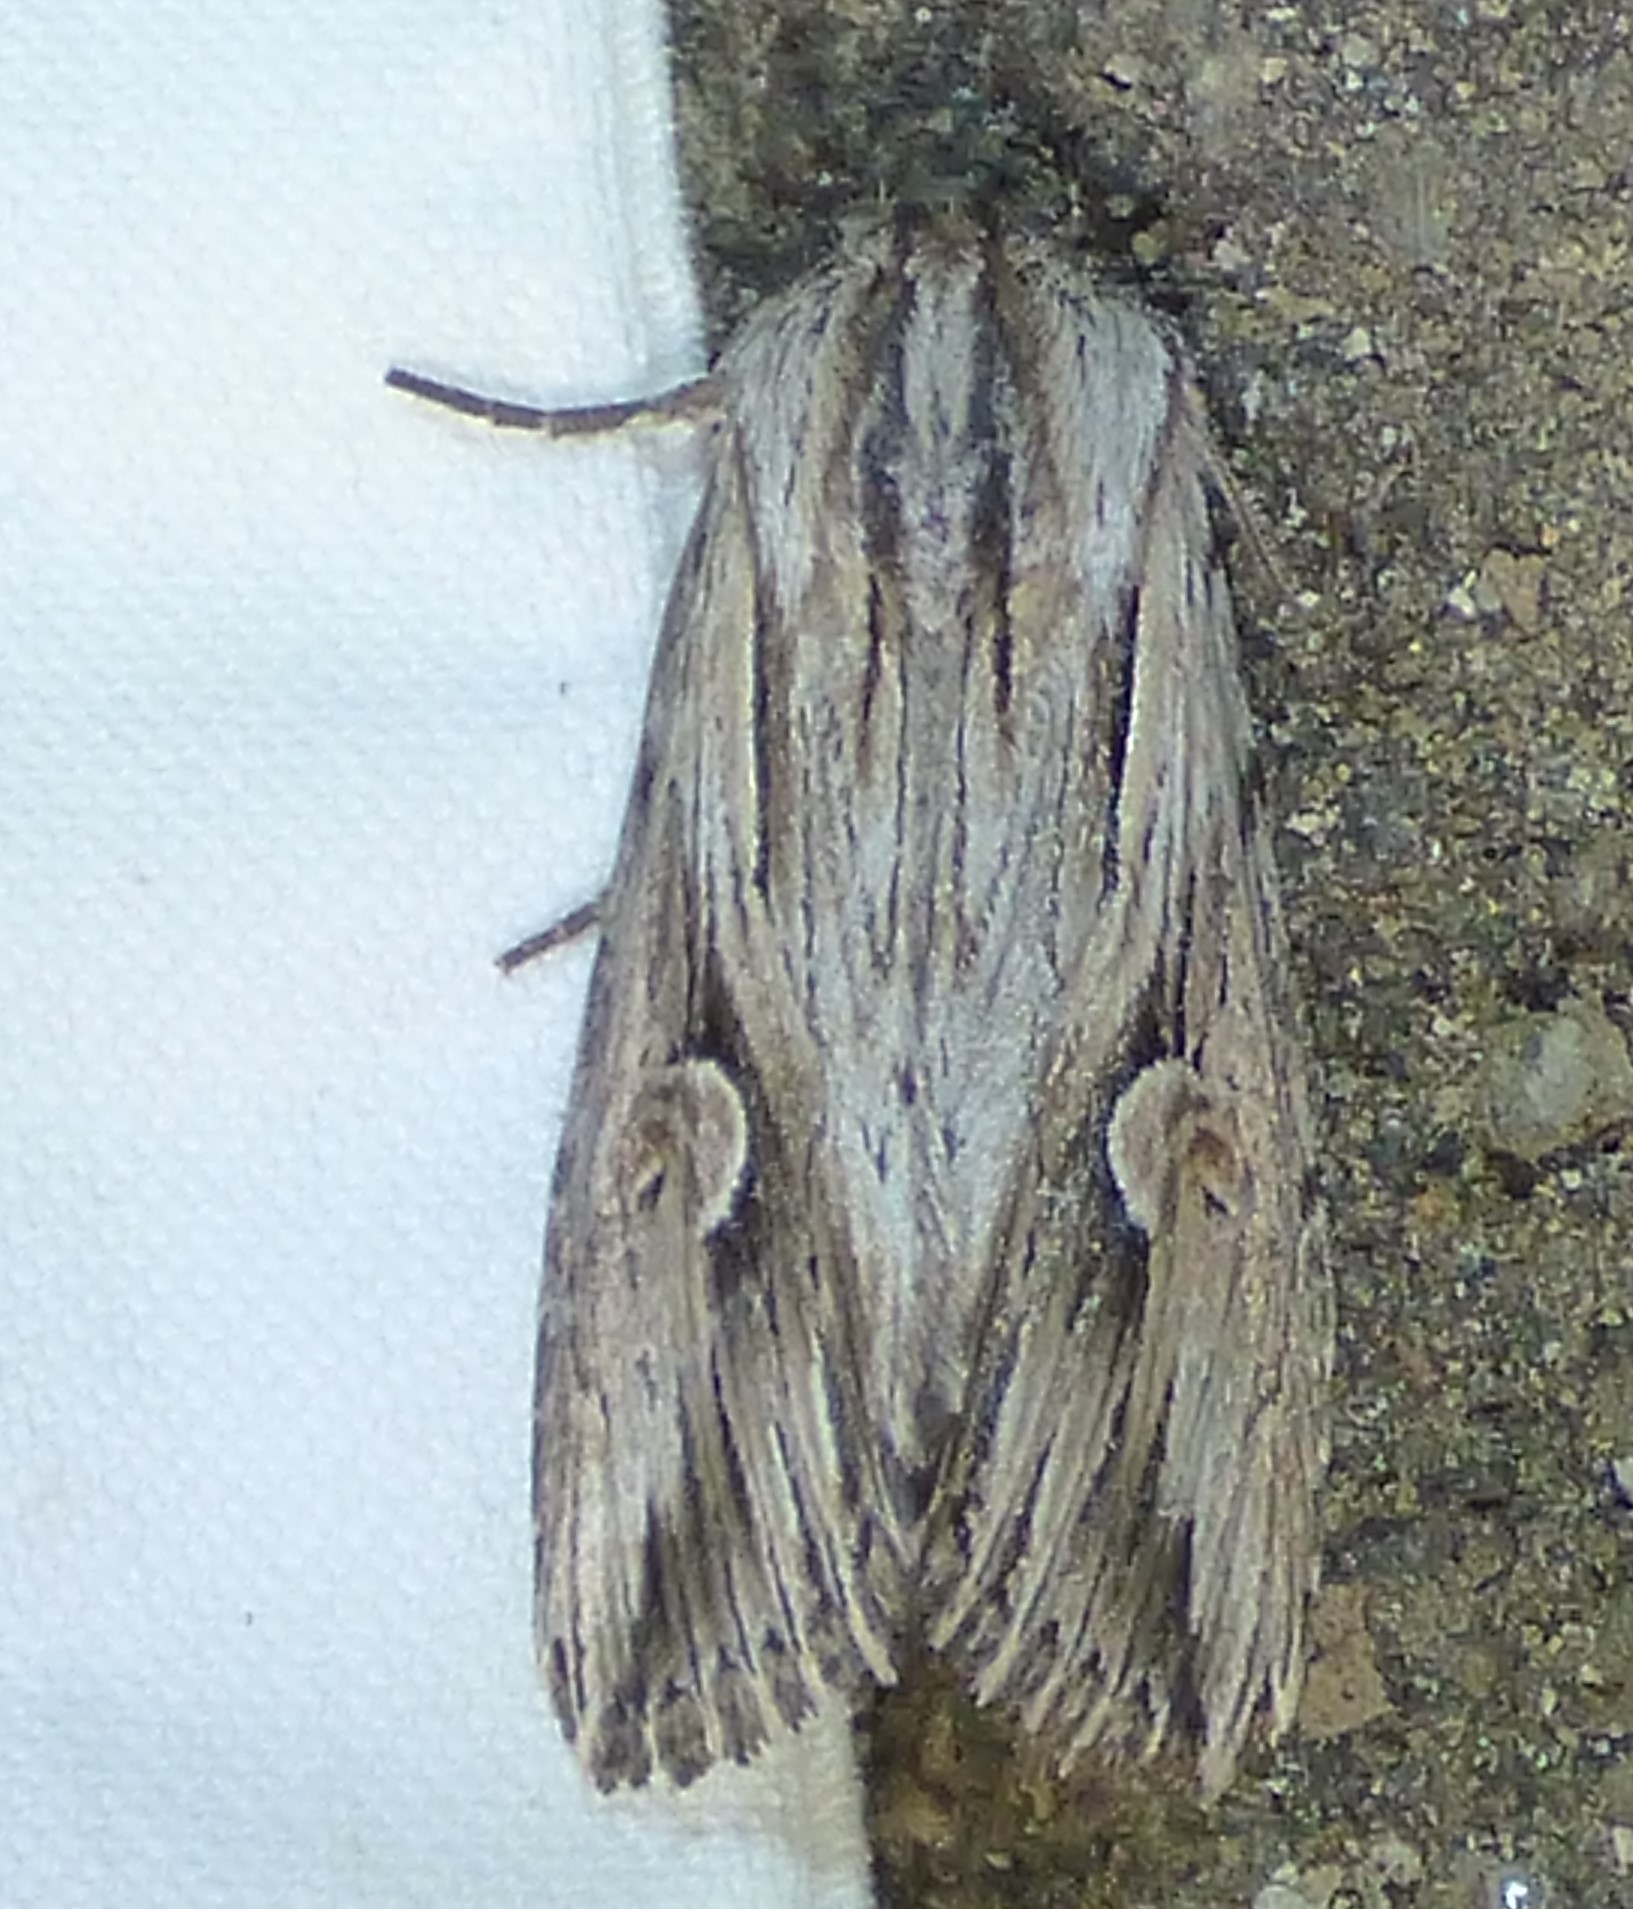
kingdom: Animalia
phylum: Arthropoda
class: Insecta
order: Lepidoptera
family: Noctuidae
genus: Nedra
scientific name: Nedra ramosula
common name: Gray half-spot
